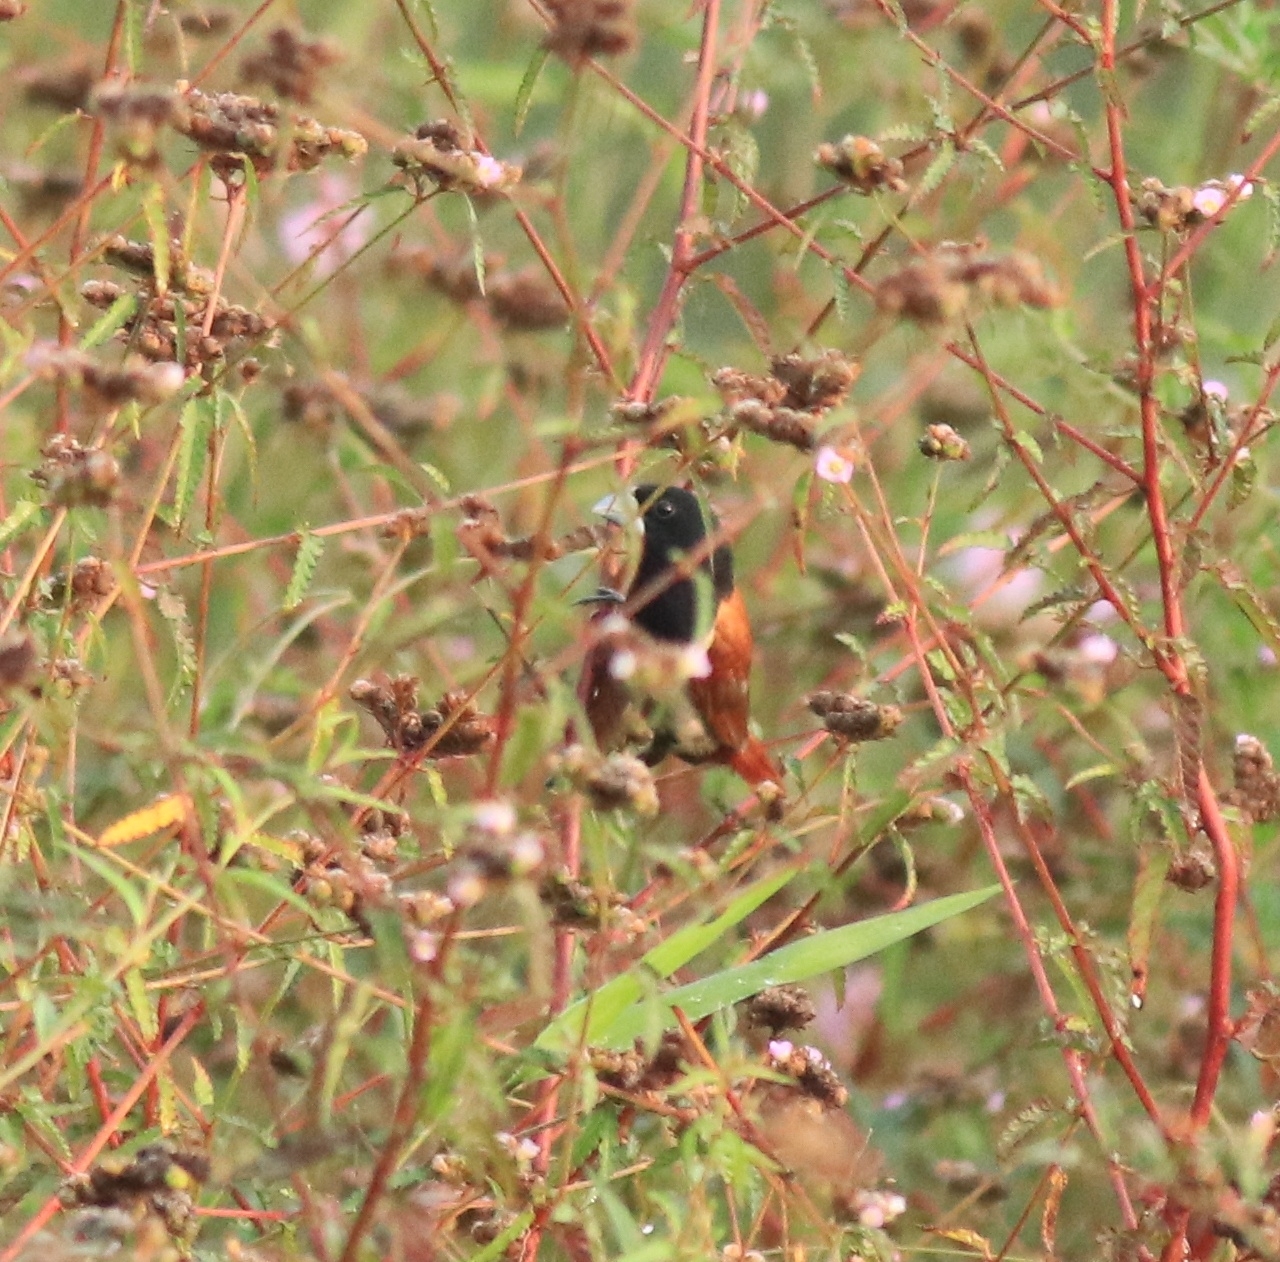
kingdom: Animalia
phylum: Chordata
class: Aves
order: Passeriformes
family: Estrildidae
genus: Lonchura
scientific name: Lonchura malacca
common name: Tricolored munia
